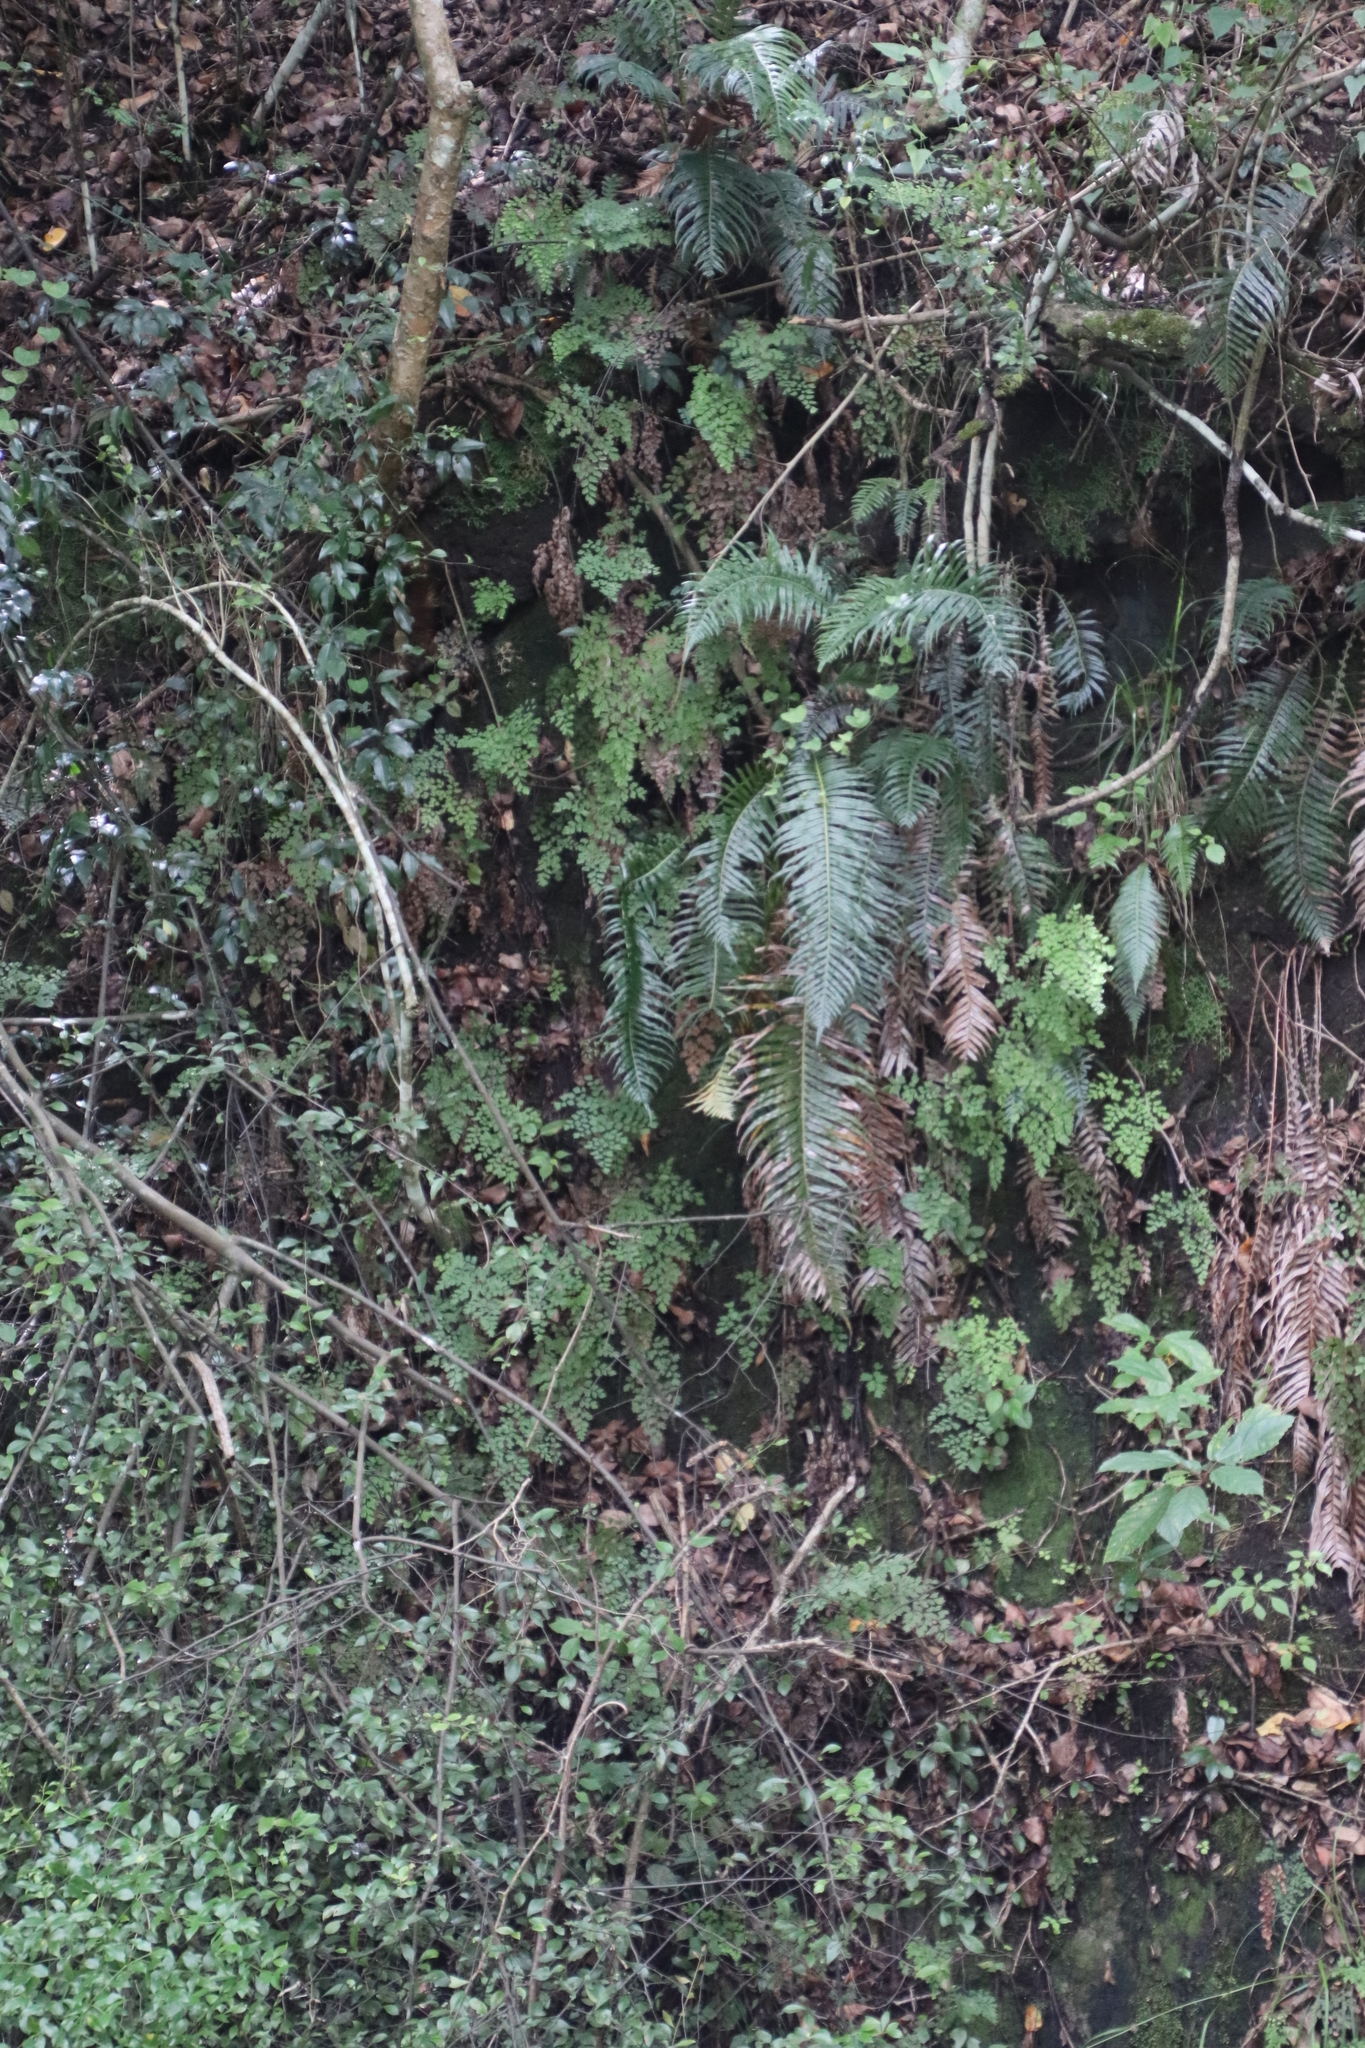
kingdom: Plantae
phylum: Tracheophyta
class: Polypodiopsida
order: Polypodiales
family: Blechnaceae
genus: Lomaridium
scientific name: Lomaridium attenuatum
